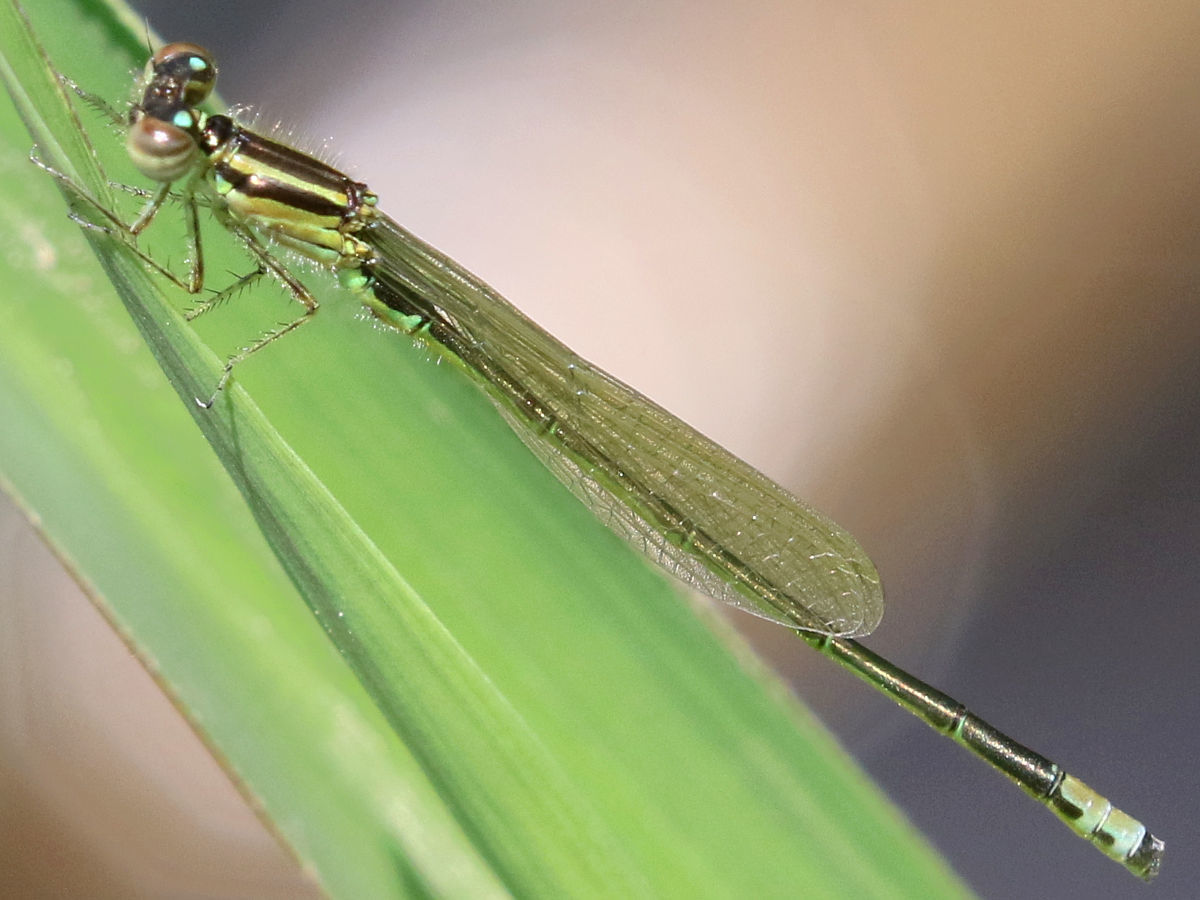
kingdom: Animalia
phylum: Arthropoda
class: Insecta
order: Odonata
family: Coenagrionidae
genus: Ischnura
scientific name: Ischnura verticalis
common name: Eastern forktail
